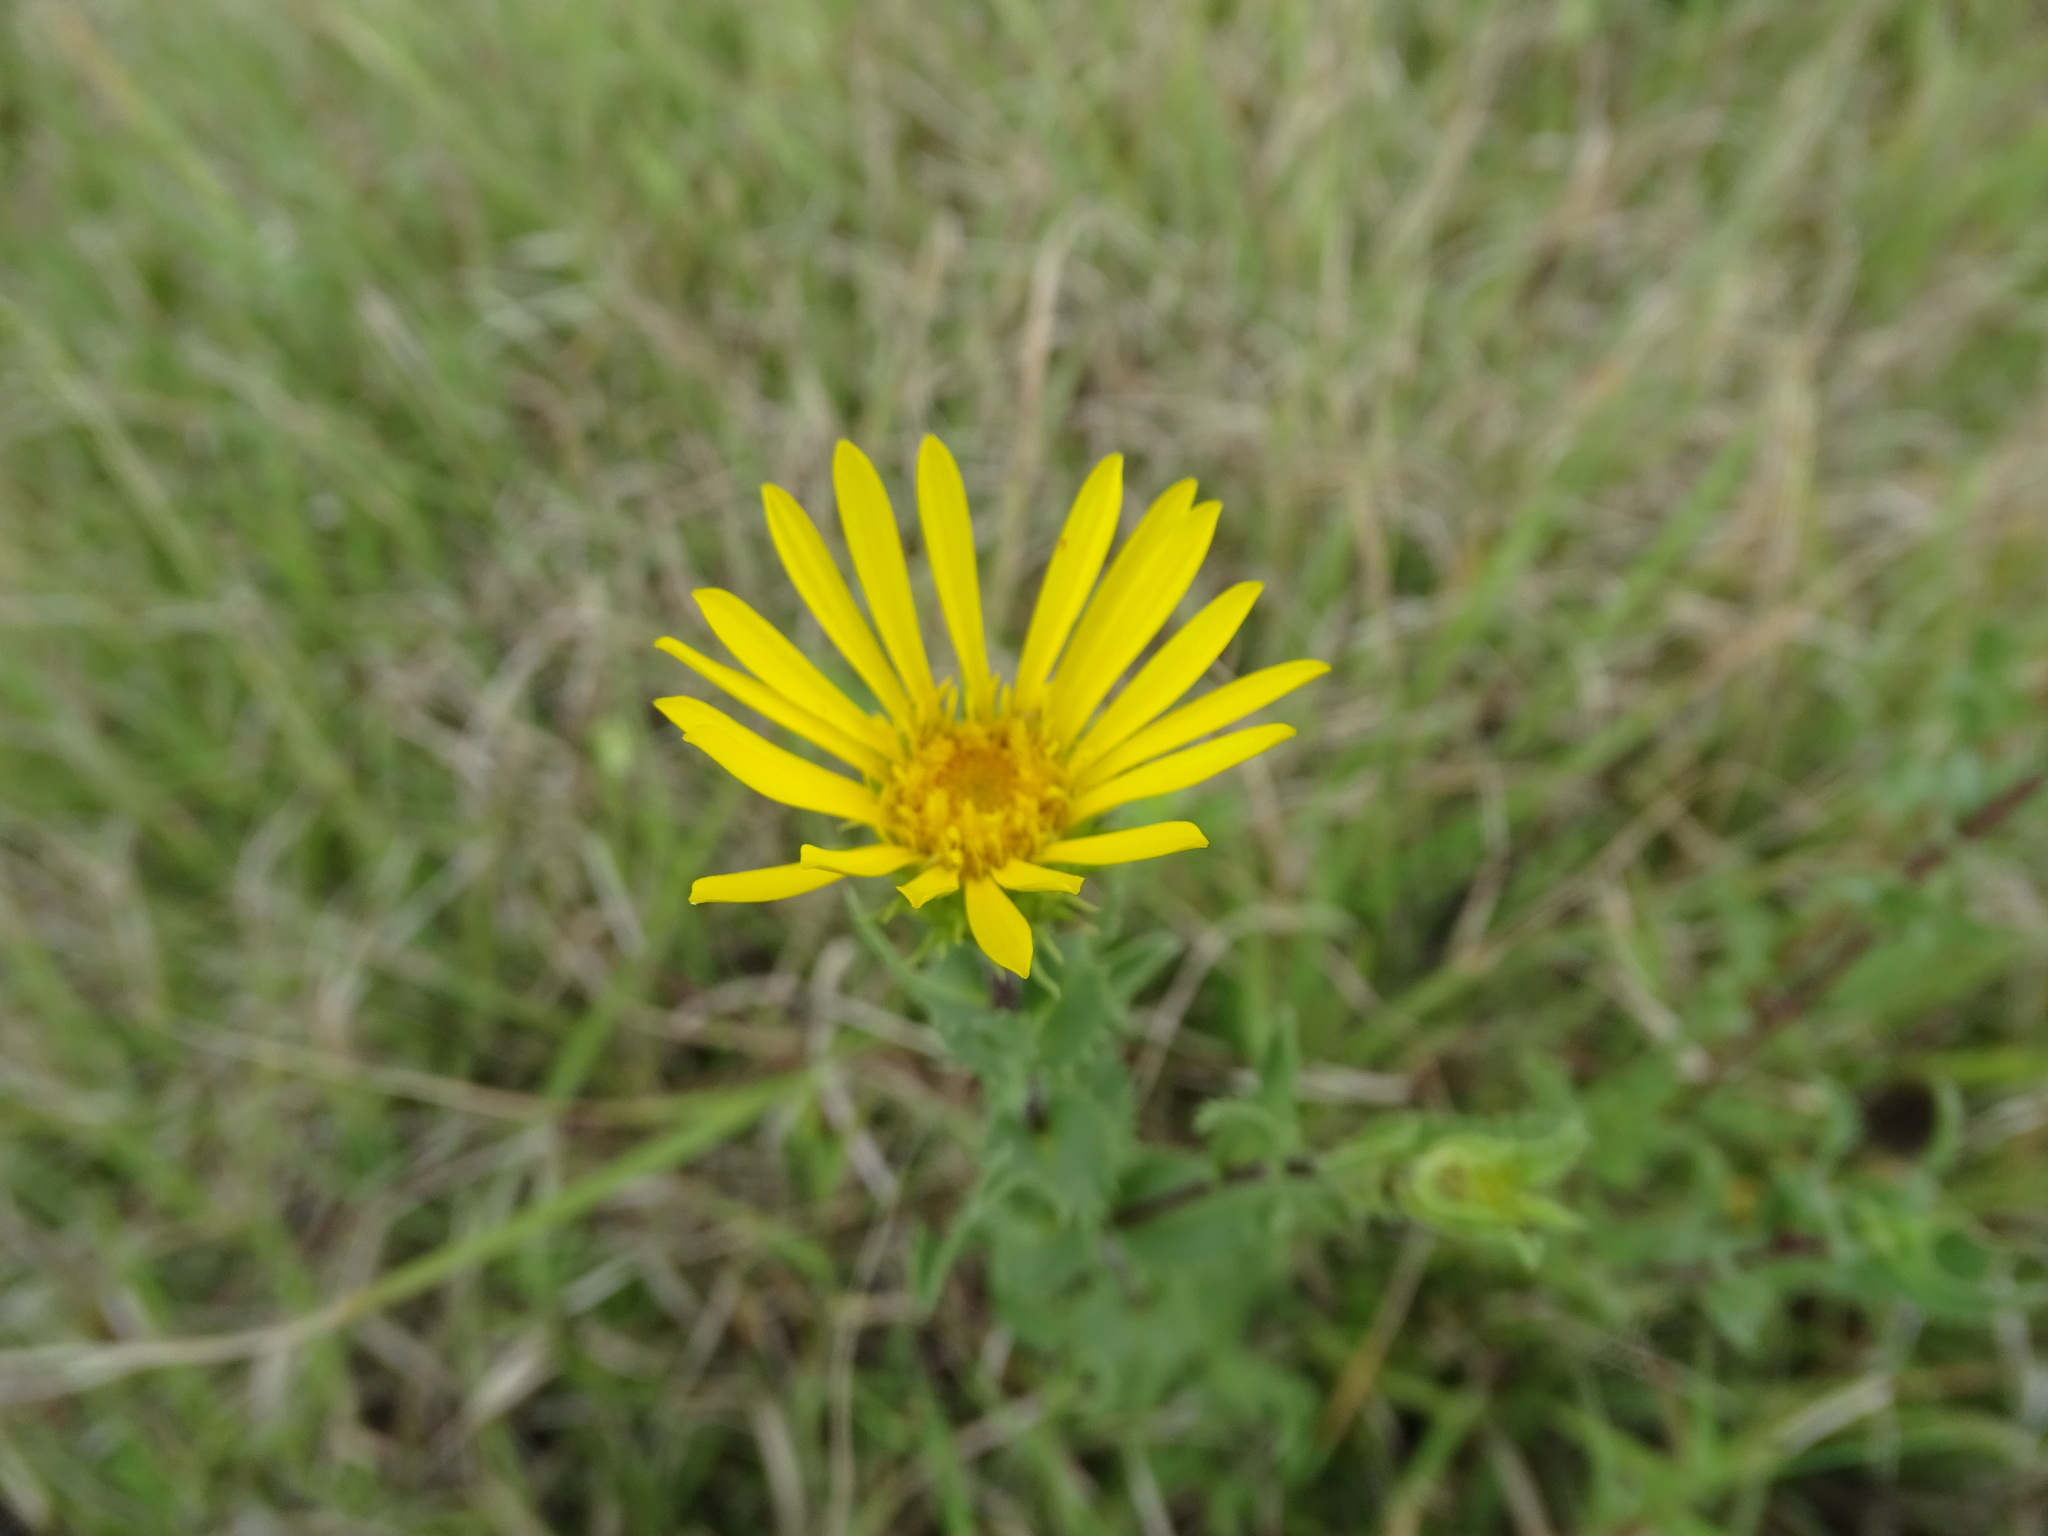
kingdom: Plantae
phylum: Tracheophyta
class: Magnoliopsida
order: Asterales
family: Asteraceae
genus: Grindelia
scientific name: Grindelia inuloides
